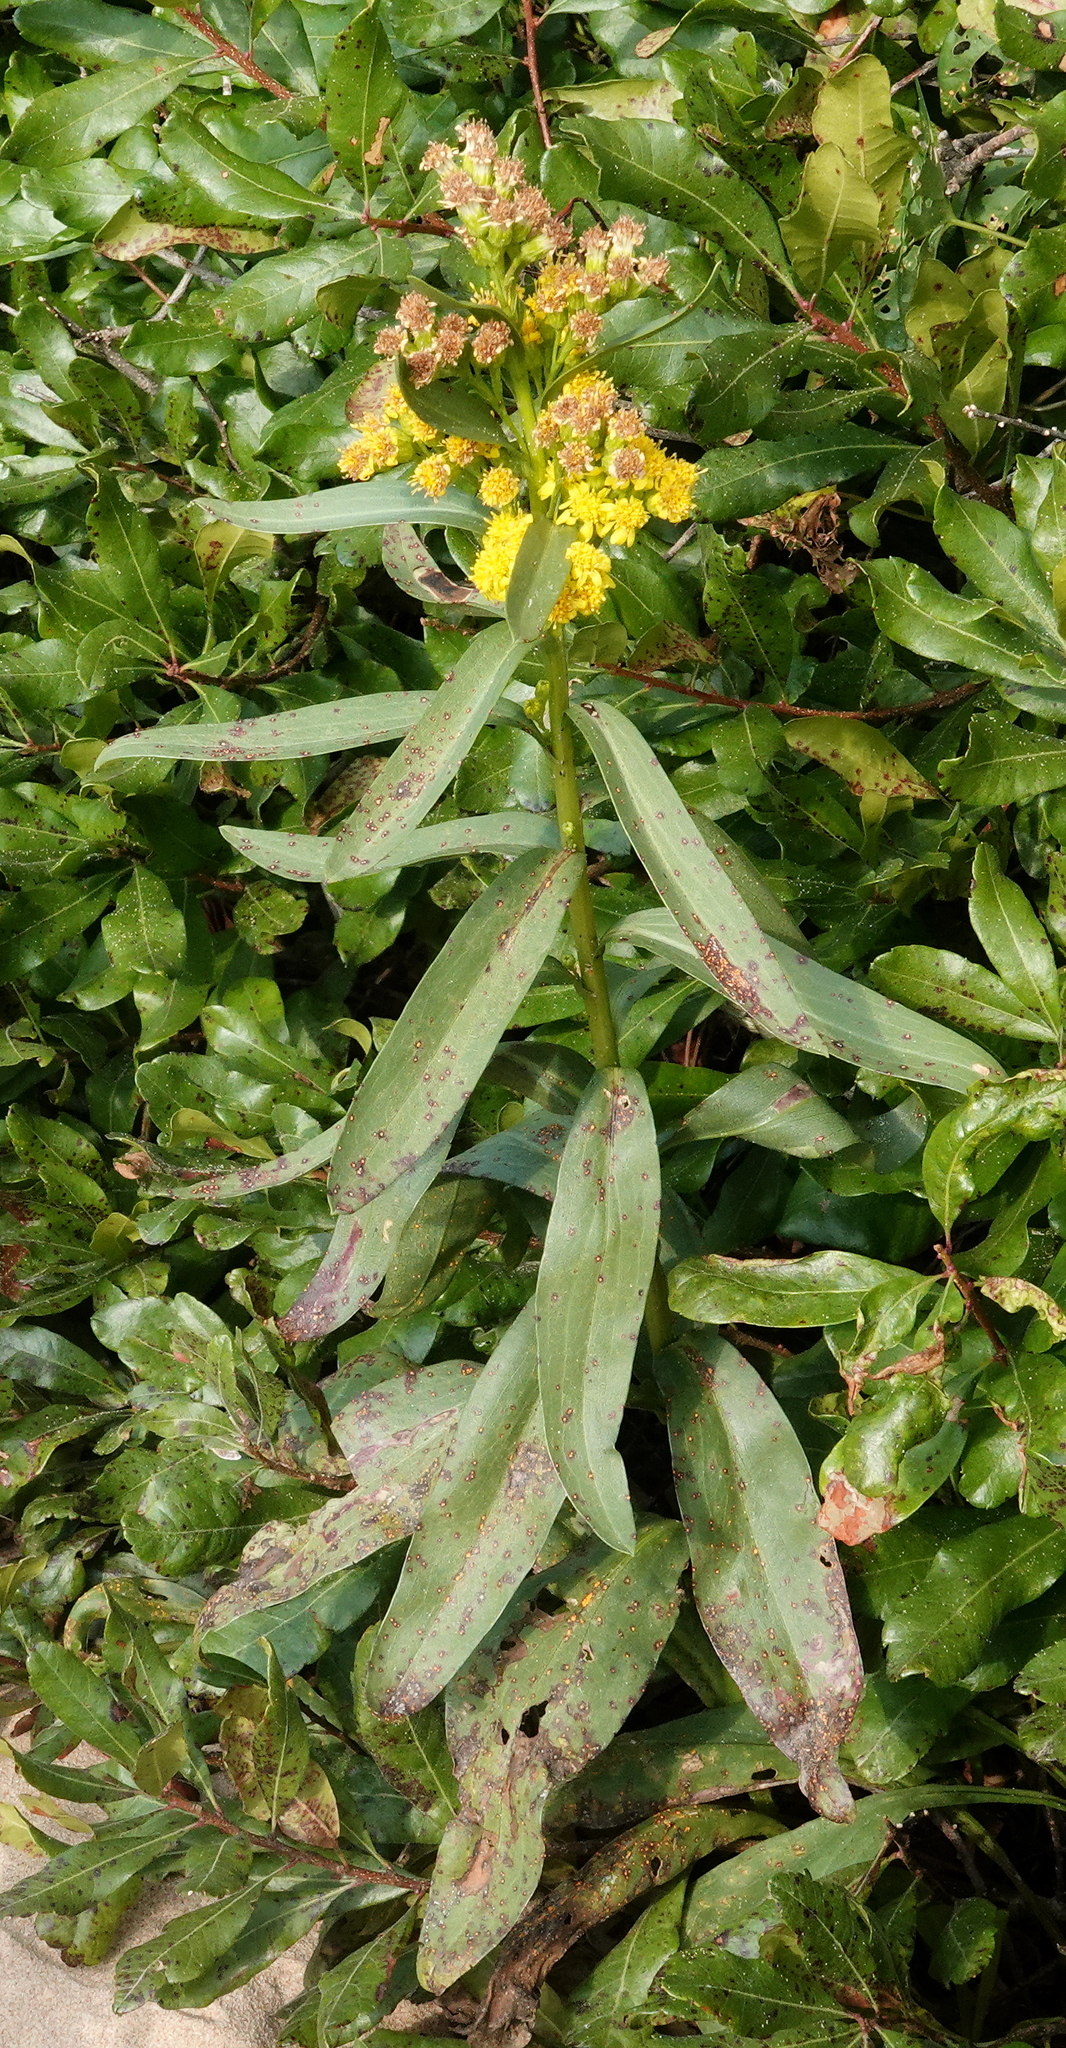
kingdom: Plantae
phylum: Tracheophyta
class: Magnoliopsida
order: Asterales
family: Asteraceae
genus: Solidago
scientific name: Solidago sempervirens
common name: Salt-marsh goldenrod
